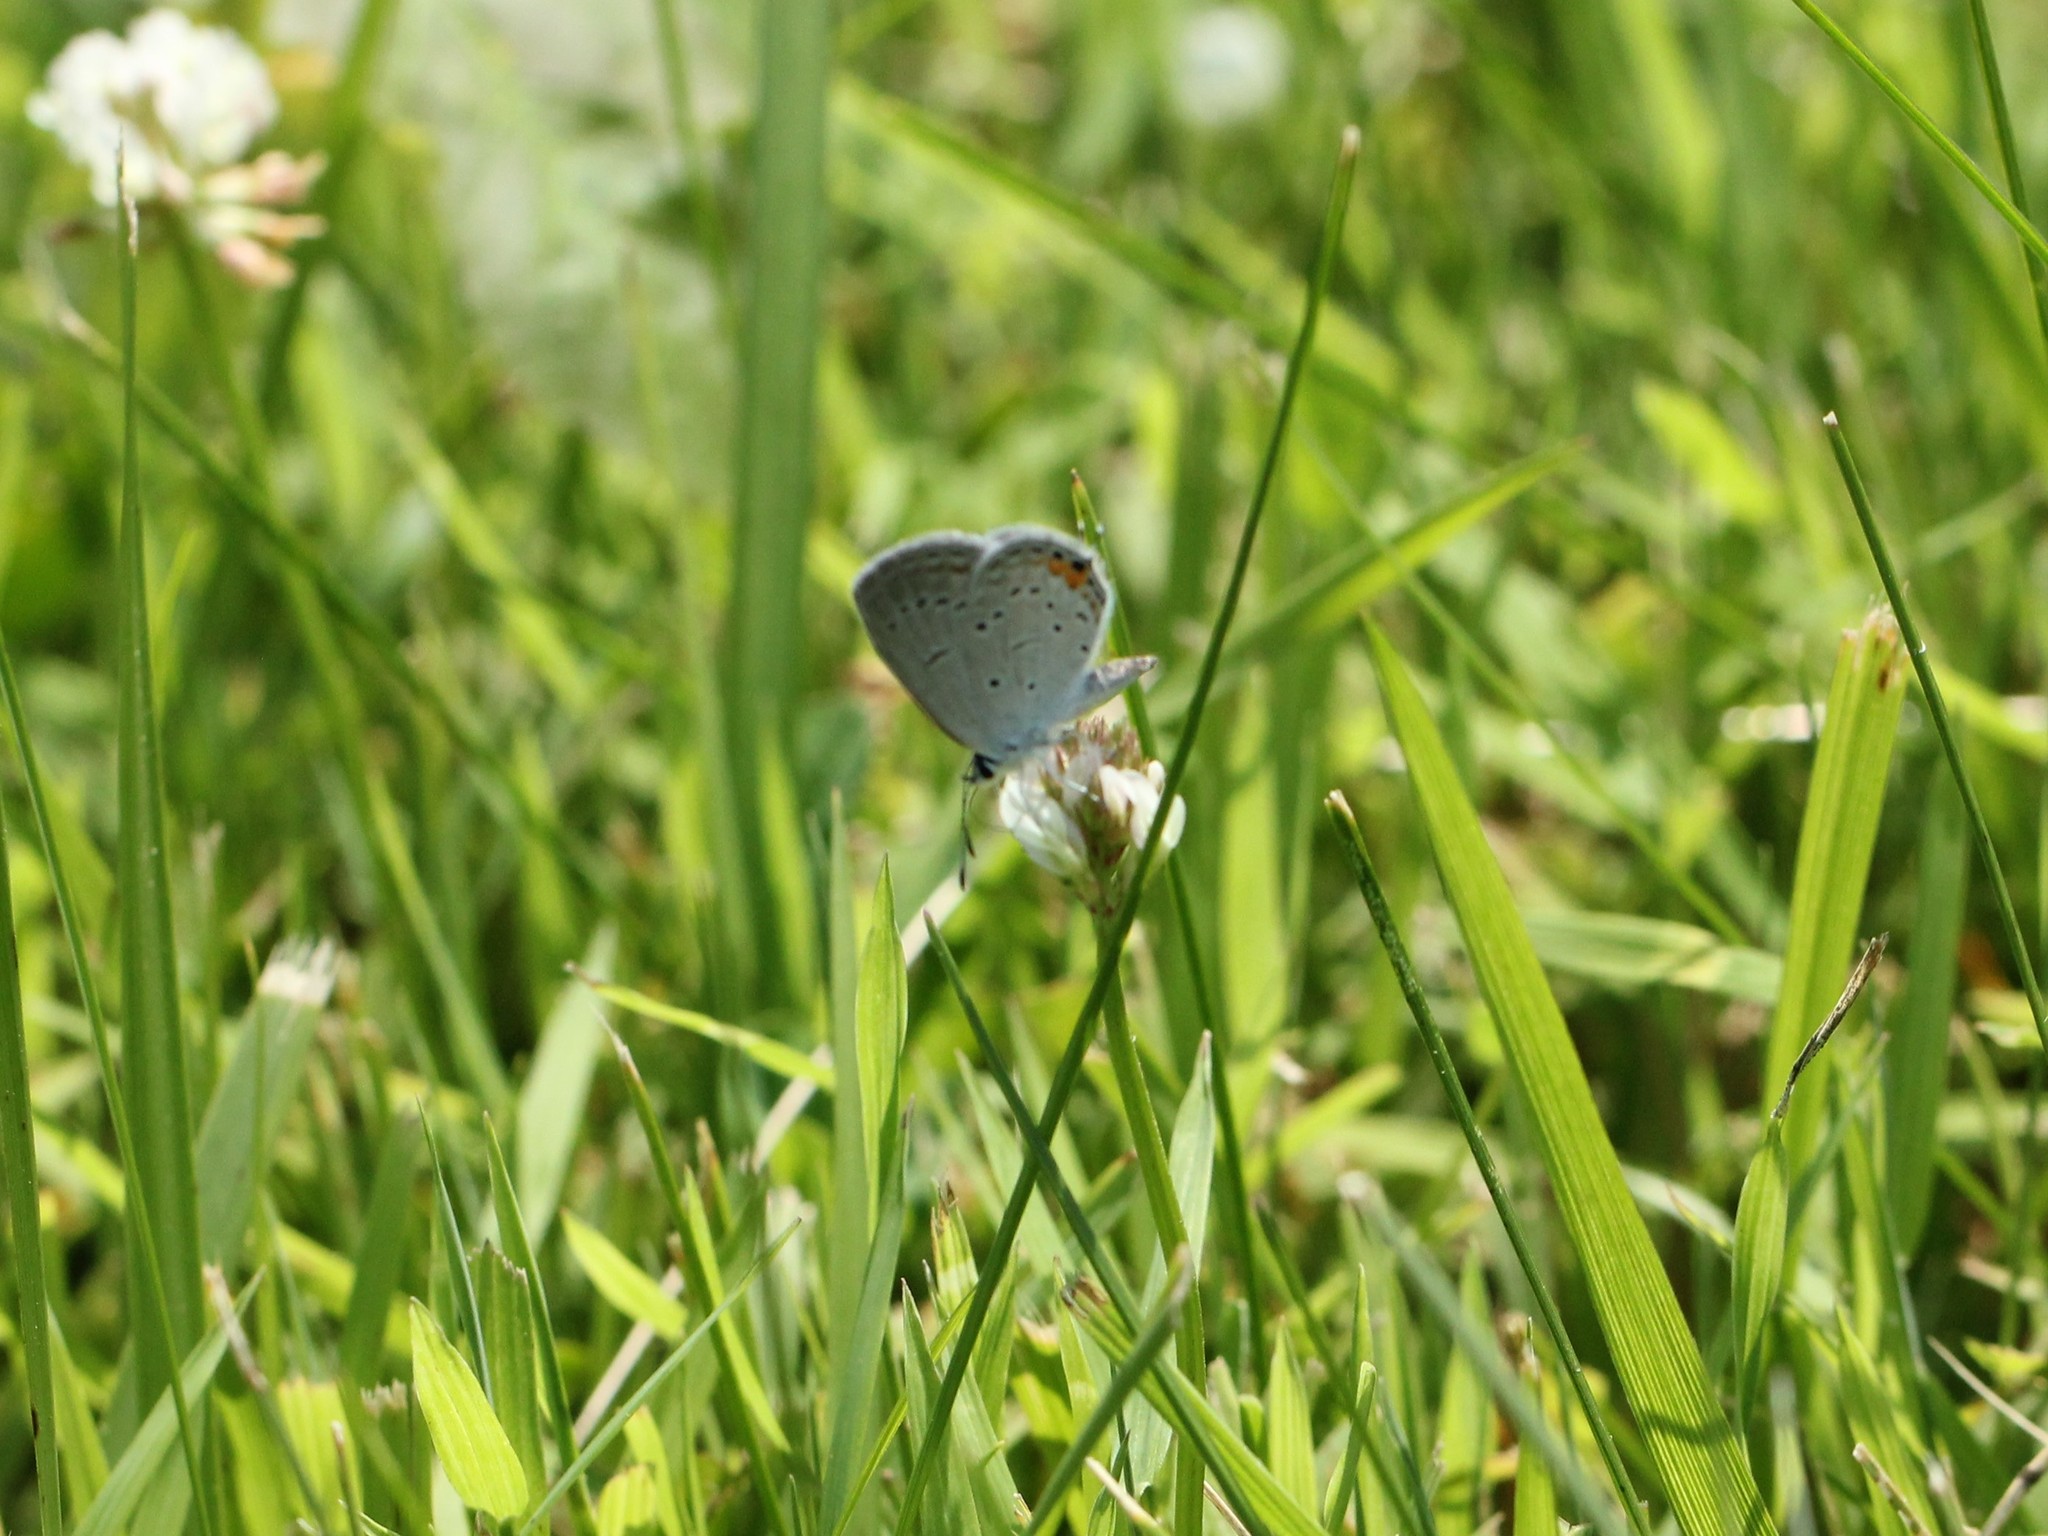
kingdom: Animalia
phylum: Arthropoda
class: Insecta
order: Lepidoptera
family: Lycaenidae
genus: Elkalyce
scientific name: Elkalyce comyntas
